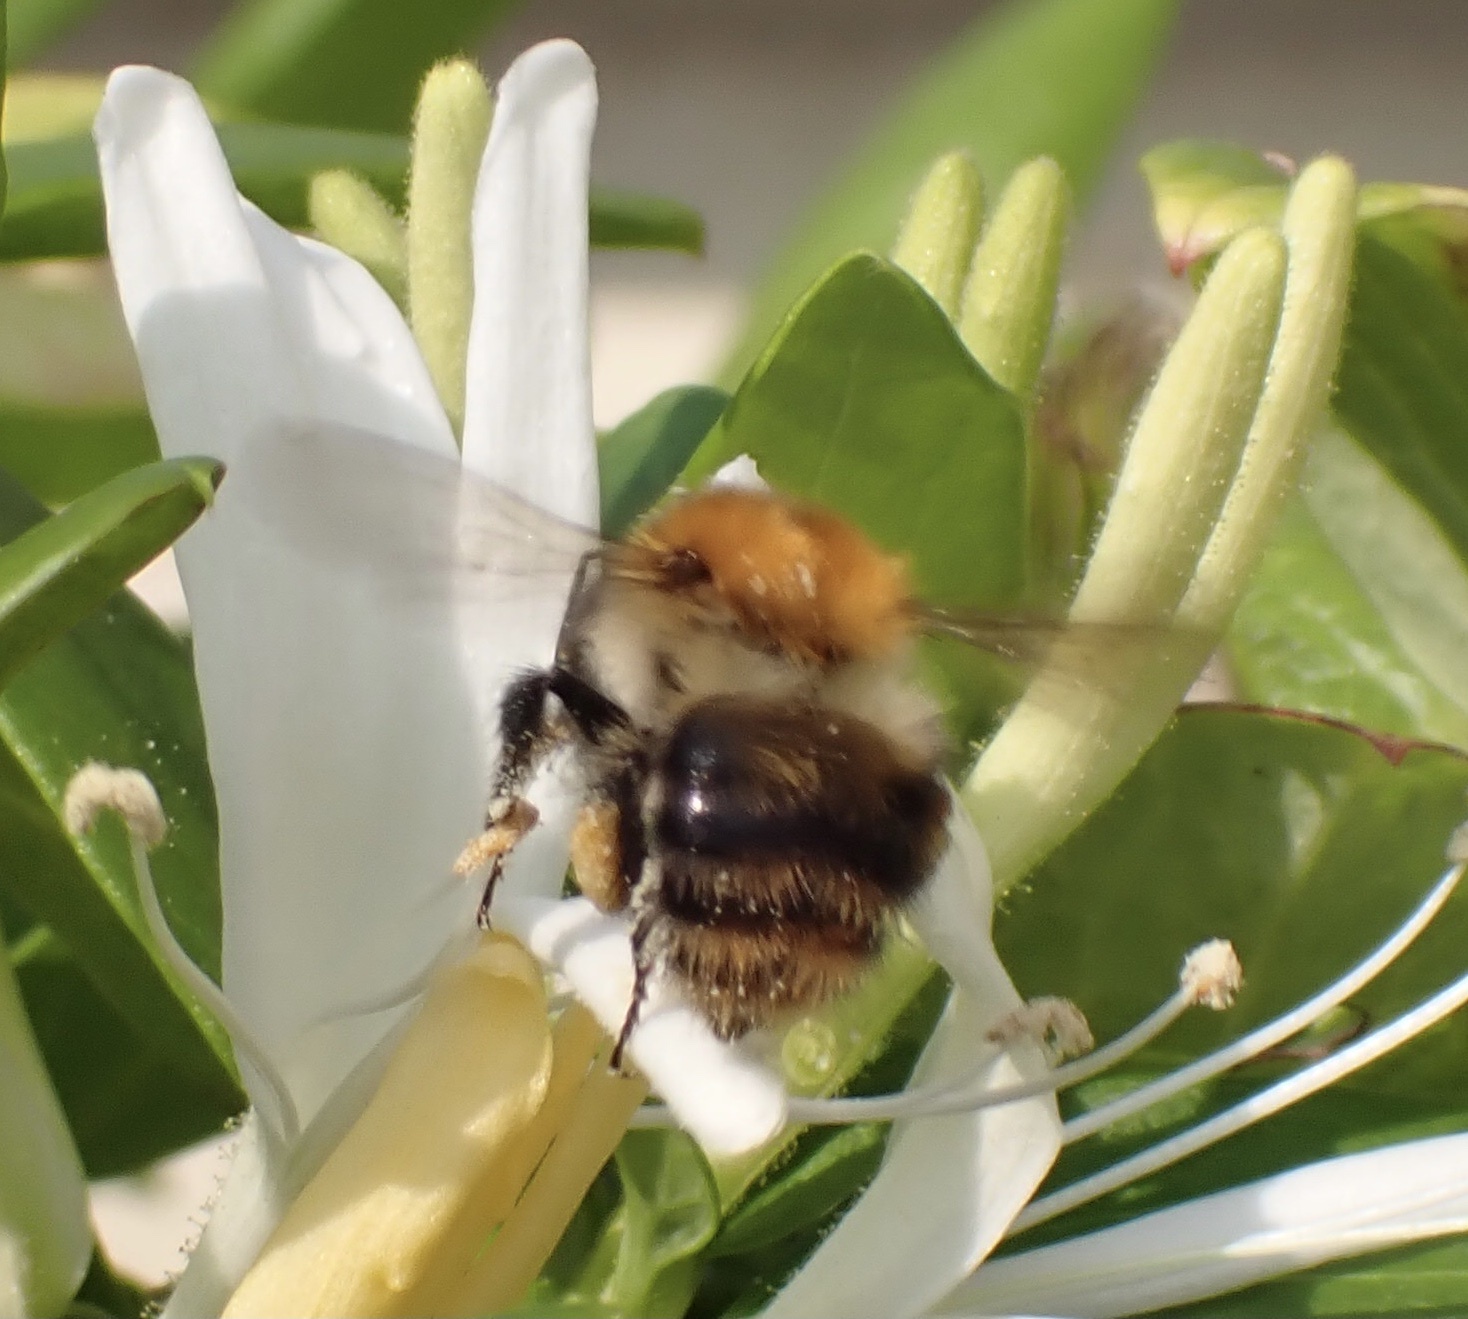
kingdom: Animalia
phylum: Arthropoda
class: Insecta
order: Hymenoptera
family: Apidae
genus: Bombus
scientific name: Bombus pascuorum
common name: Common carder bee
